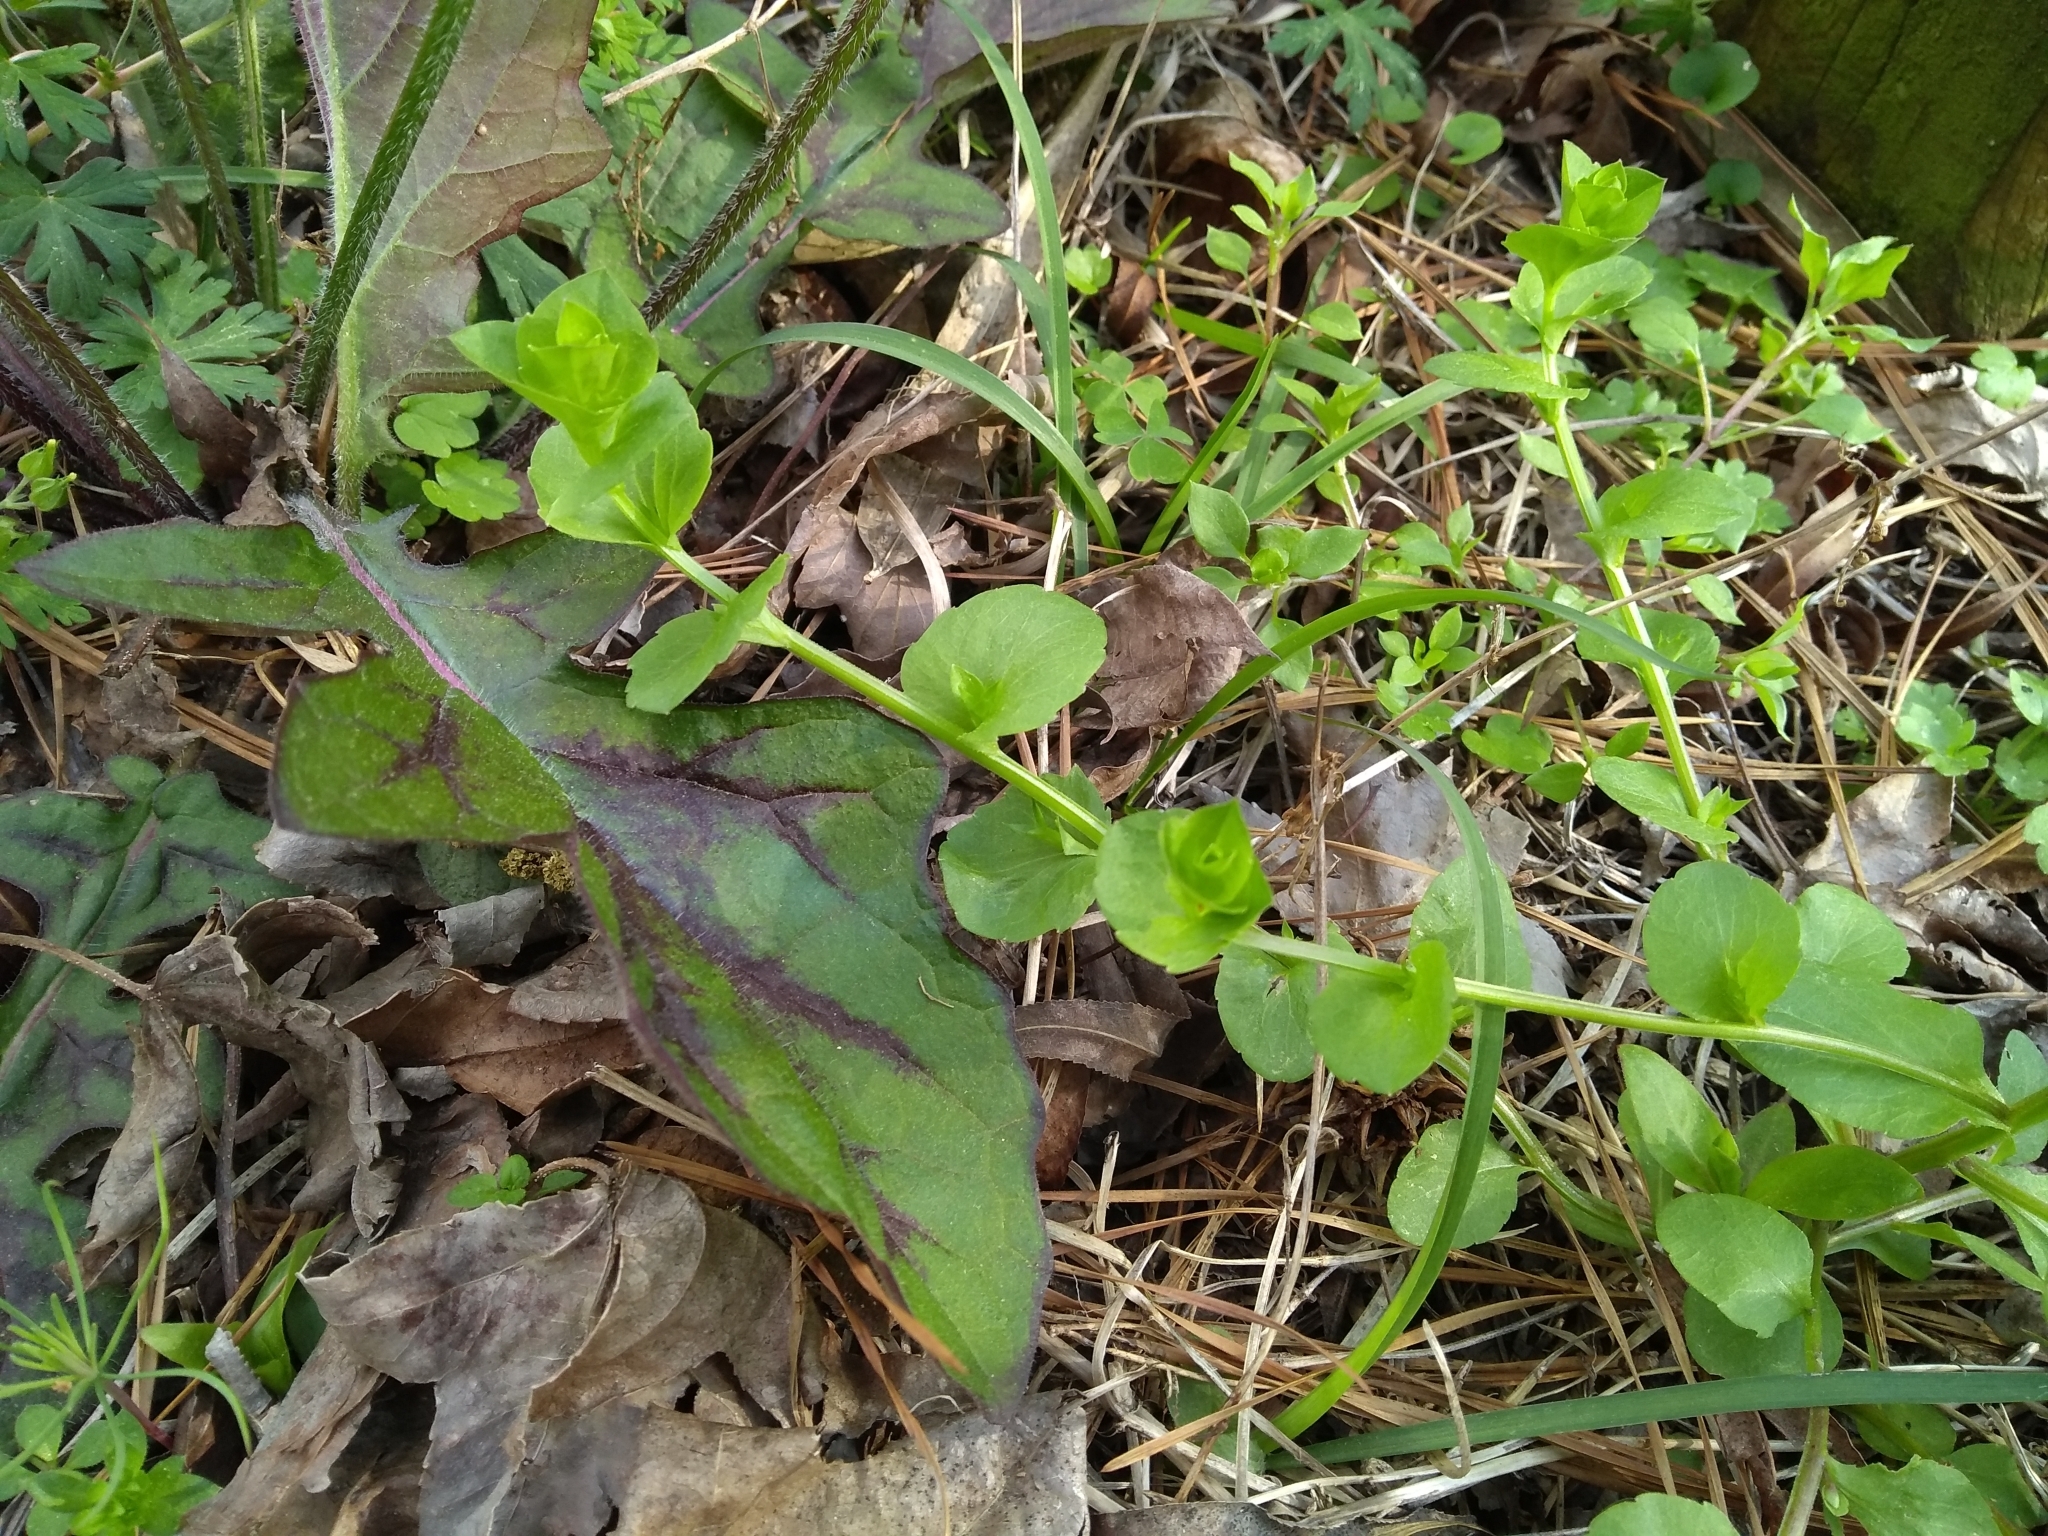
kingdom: Plantae
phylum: Tracheophyta
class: Magnoliopsida
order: Asterales
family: Campanulaceae
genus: Triodanis
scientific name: Triodanis perfoliata
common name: Clasping venus' looking-glass
